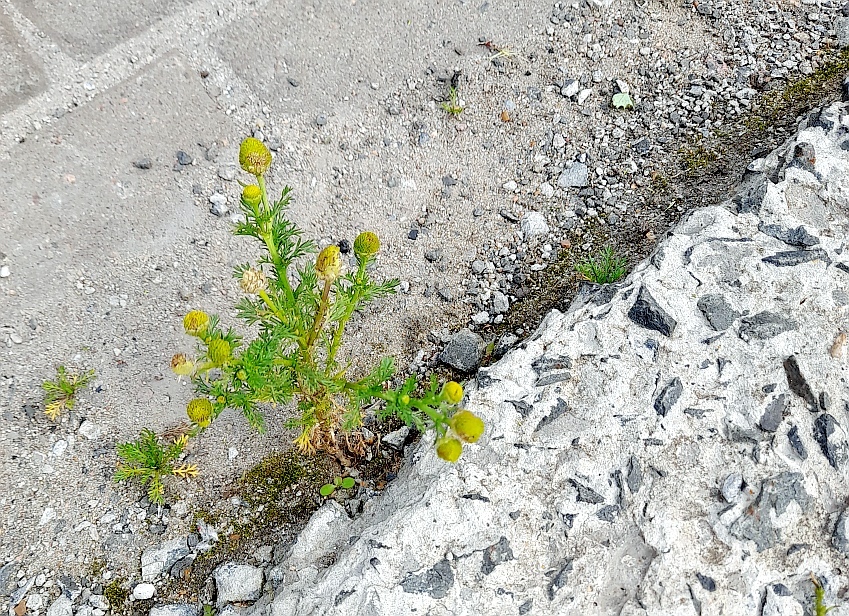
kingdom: Plantae
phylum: Tracheophyta
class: Magnoliopsida
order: Asterales
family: Asteraceae
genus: Matricaria
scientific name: Matricaria discoidea
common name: Disc mayweed
